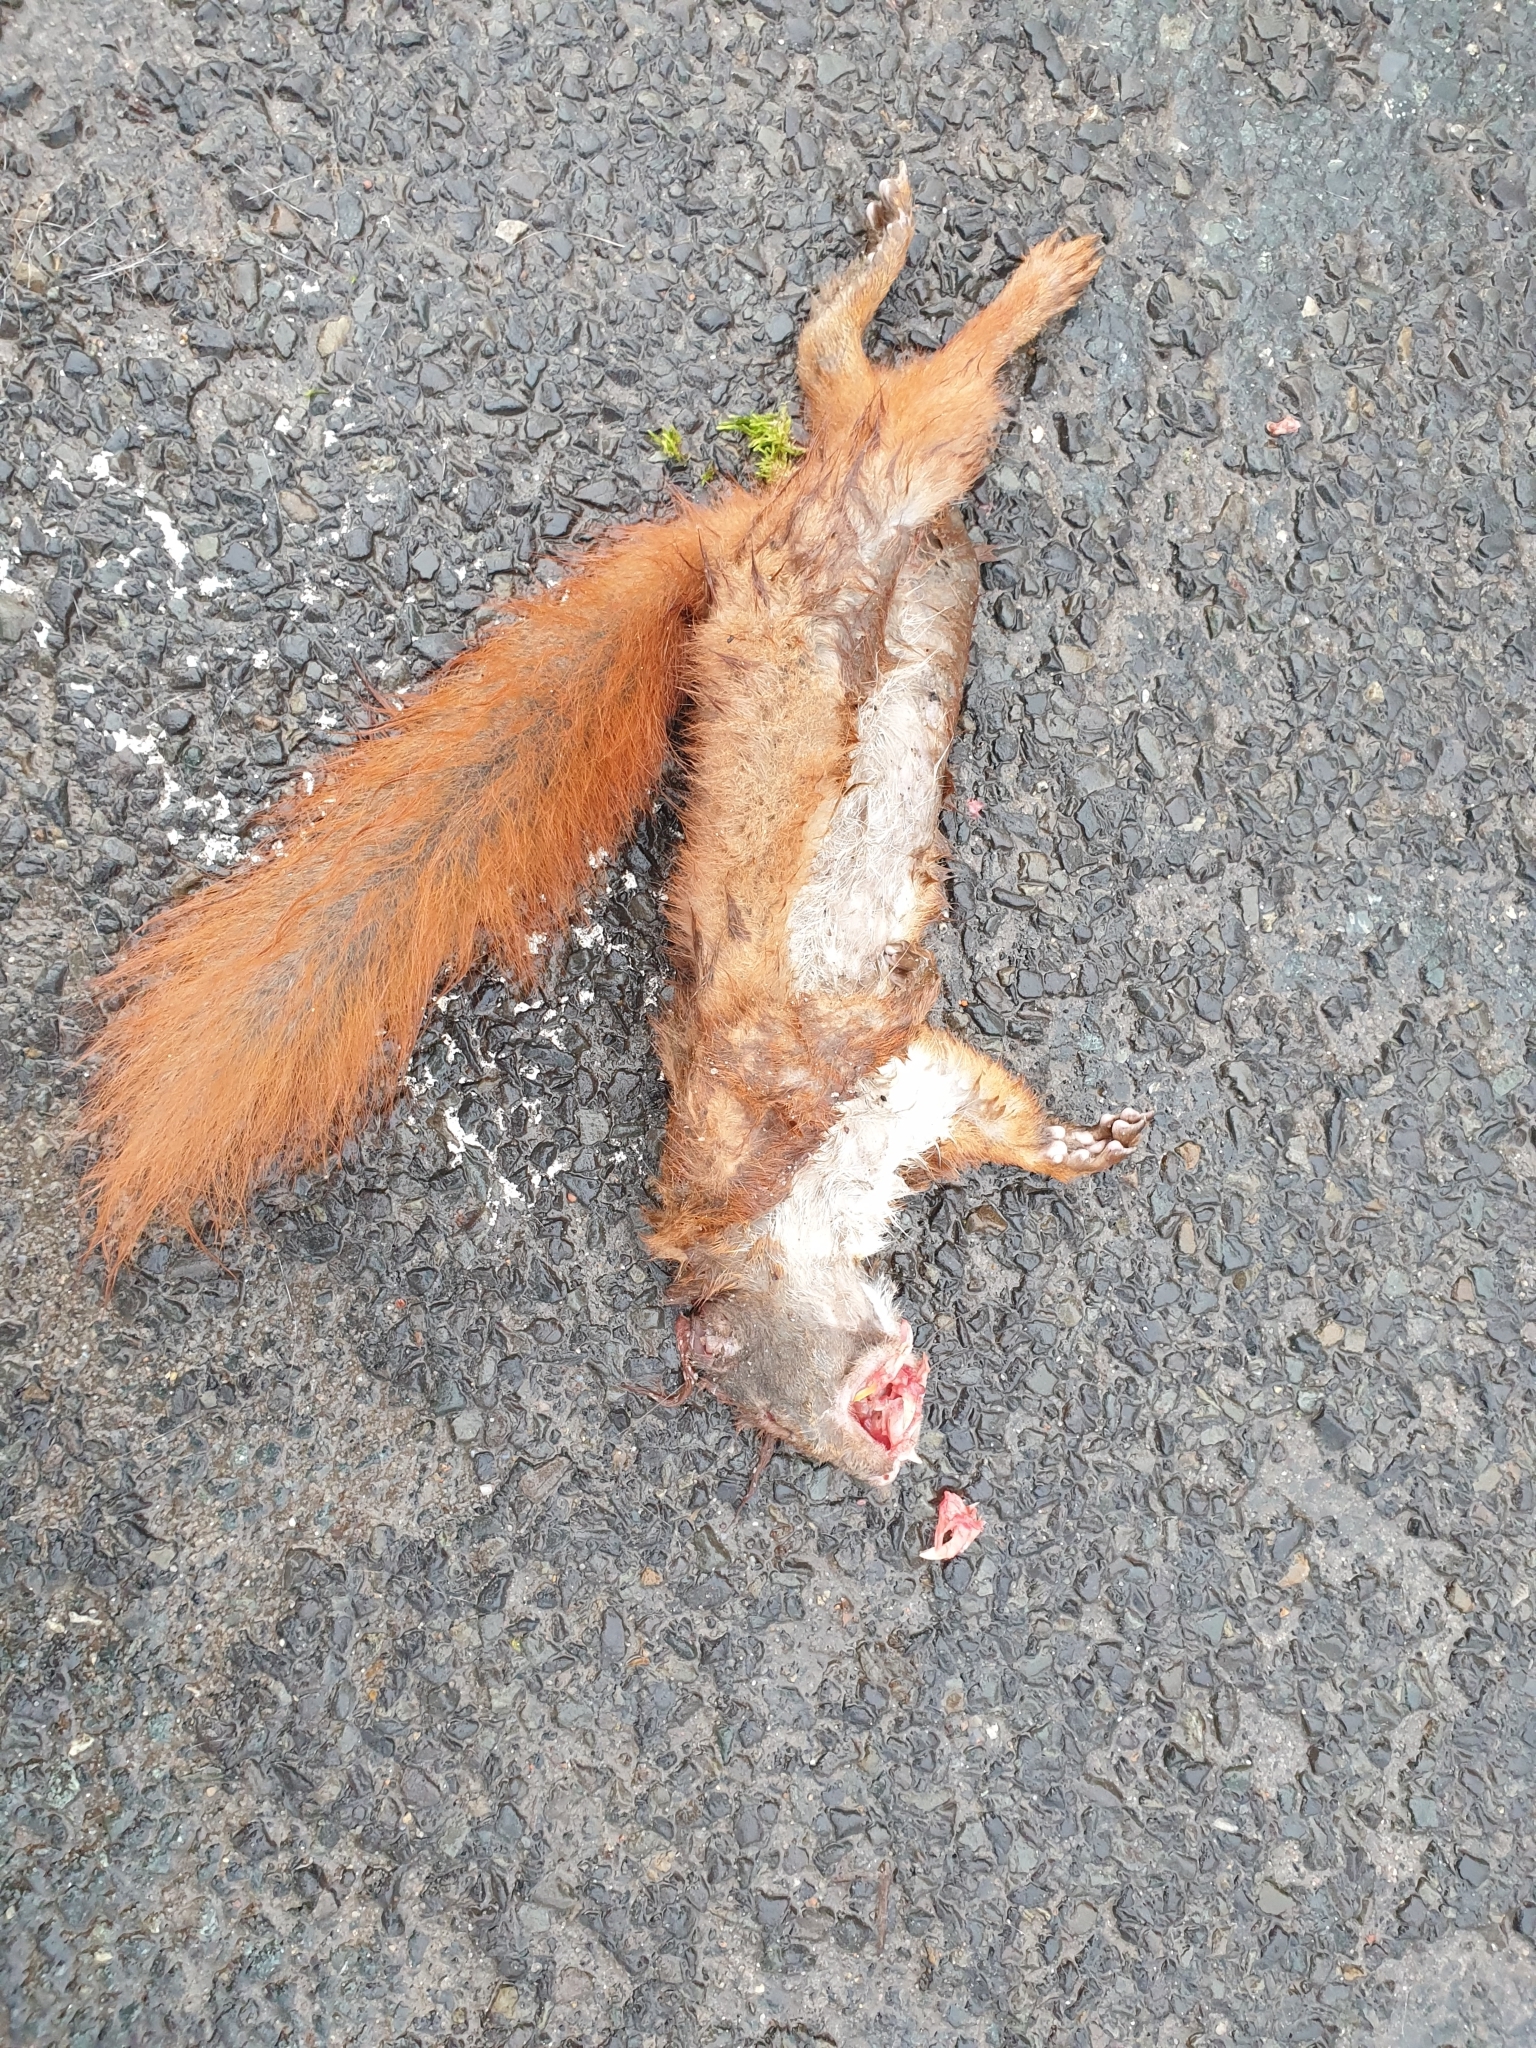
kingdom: Animalia
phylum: Chordata
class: Mammalia
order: Rodentia
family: Sciuridae
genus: Sciurus
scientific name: Sciurus vulgaris
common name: Eurasian red squirrel
